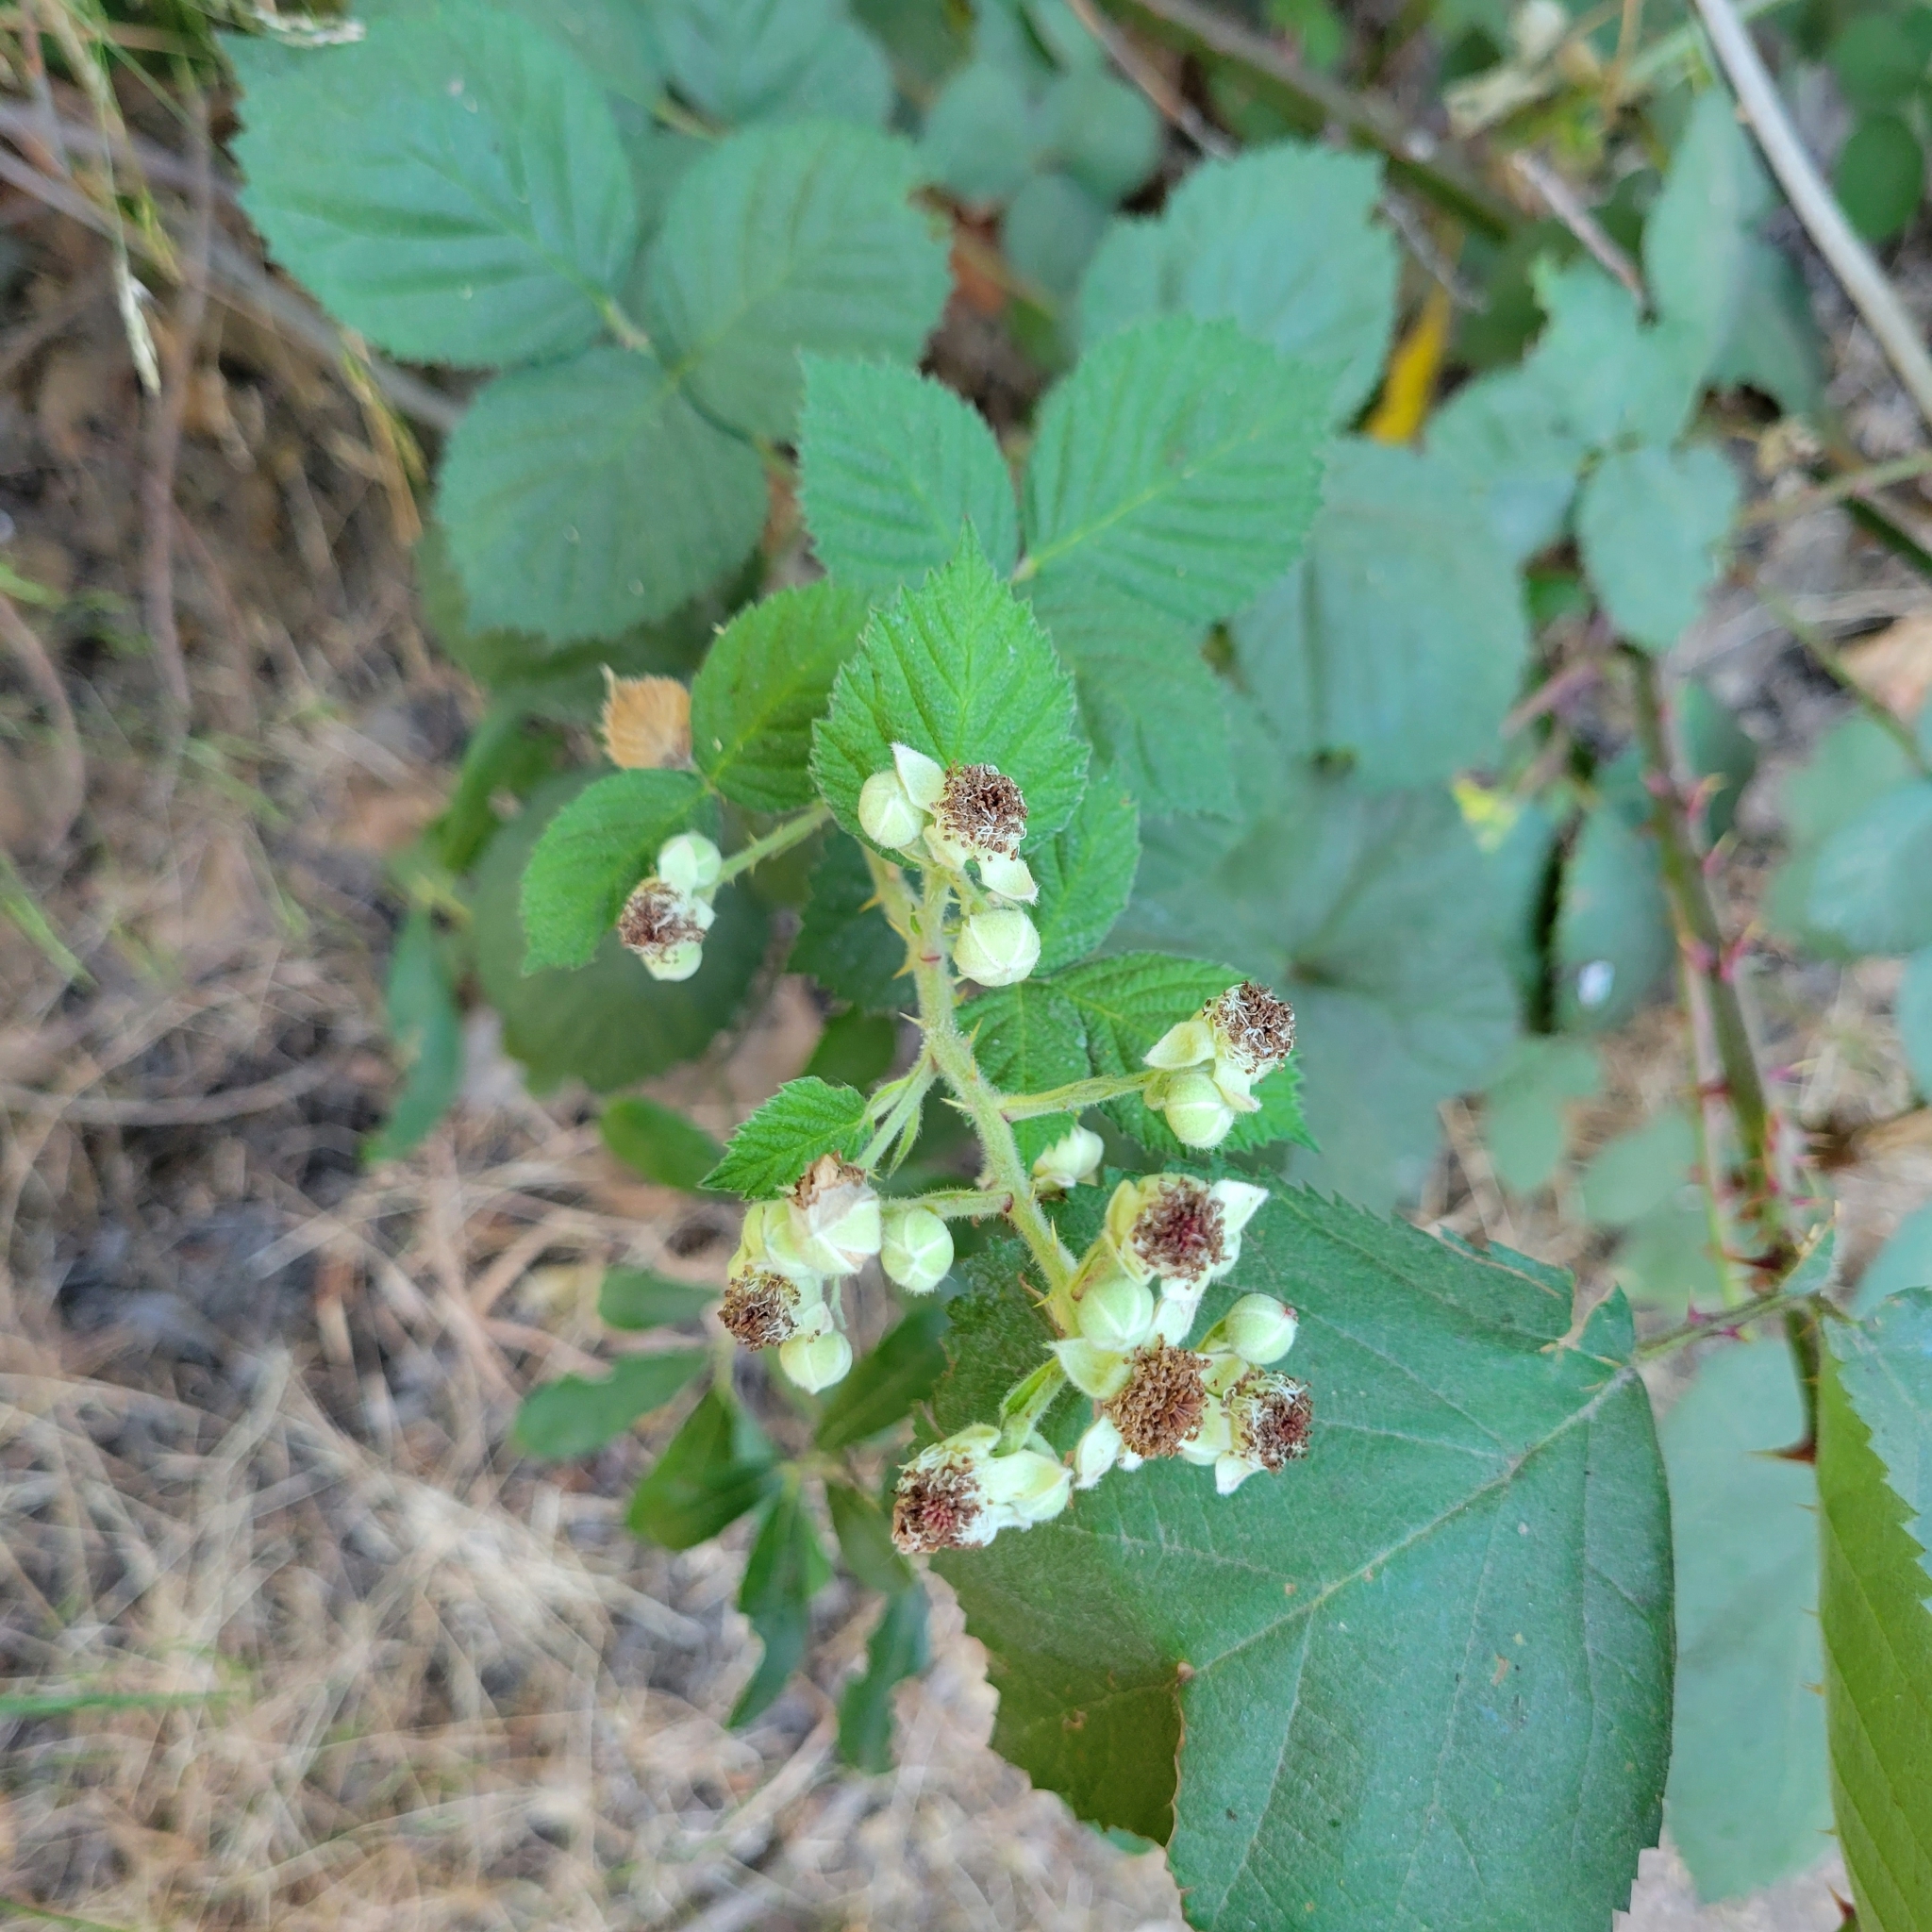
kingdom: Plantae
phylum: Tracheophyta
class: Magnoliopsida
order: Rosales
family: Rosaceae
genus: Rubus
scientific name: Rubus armeniacus
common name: Himalayan blackberry
